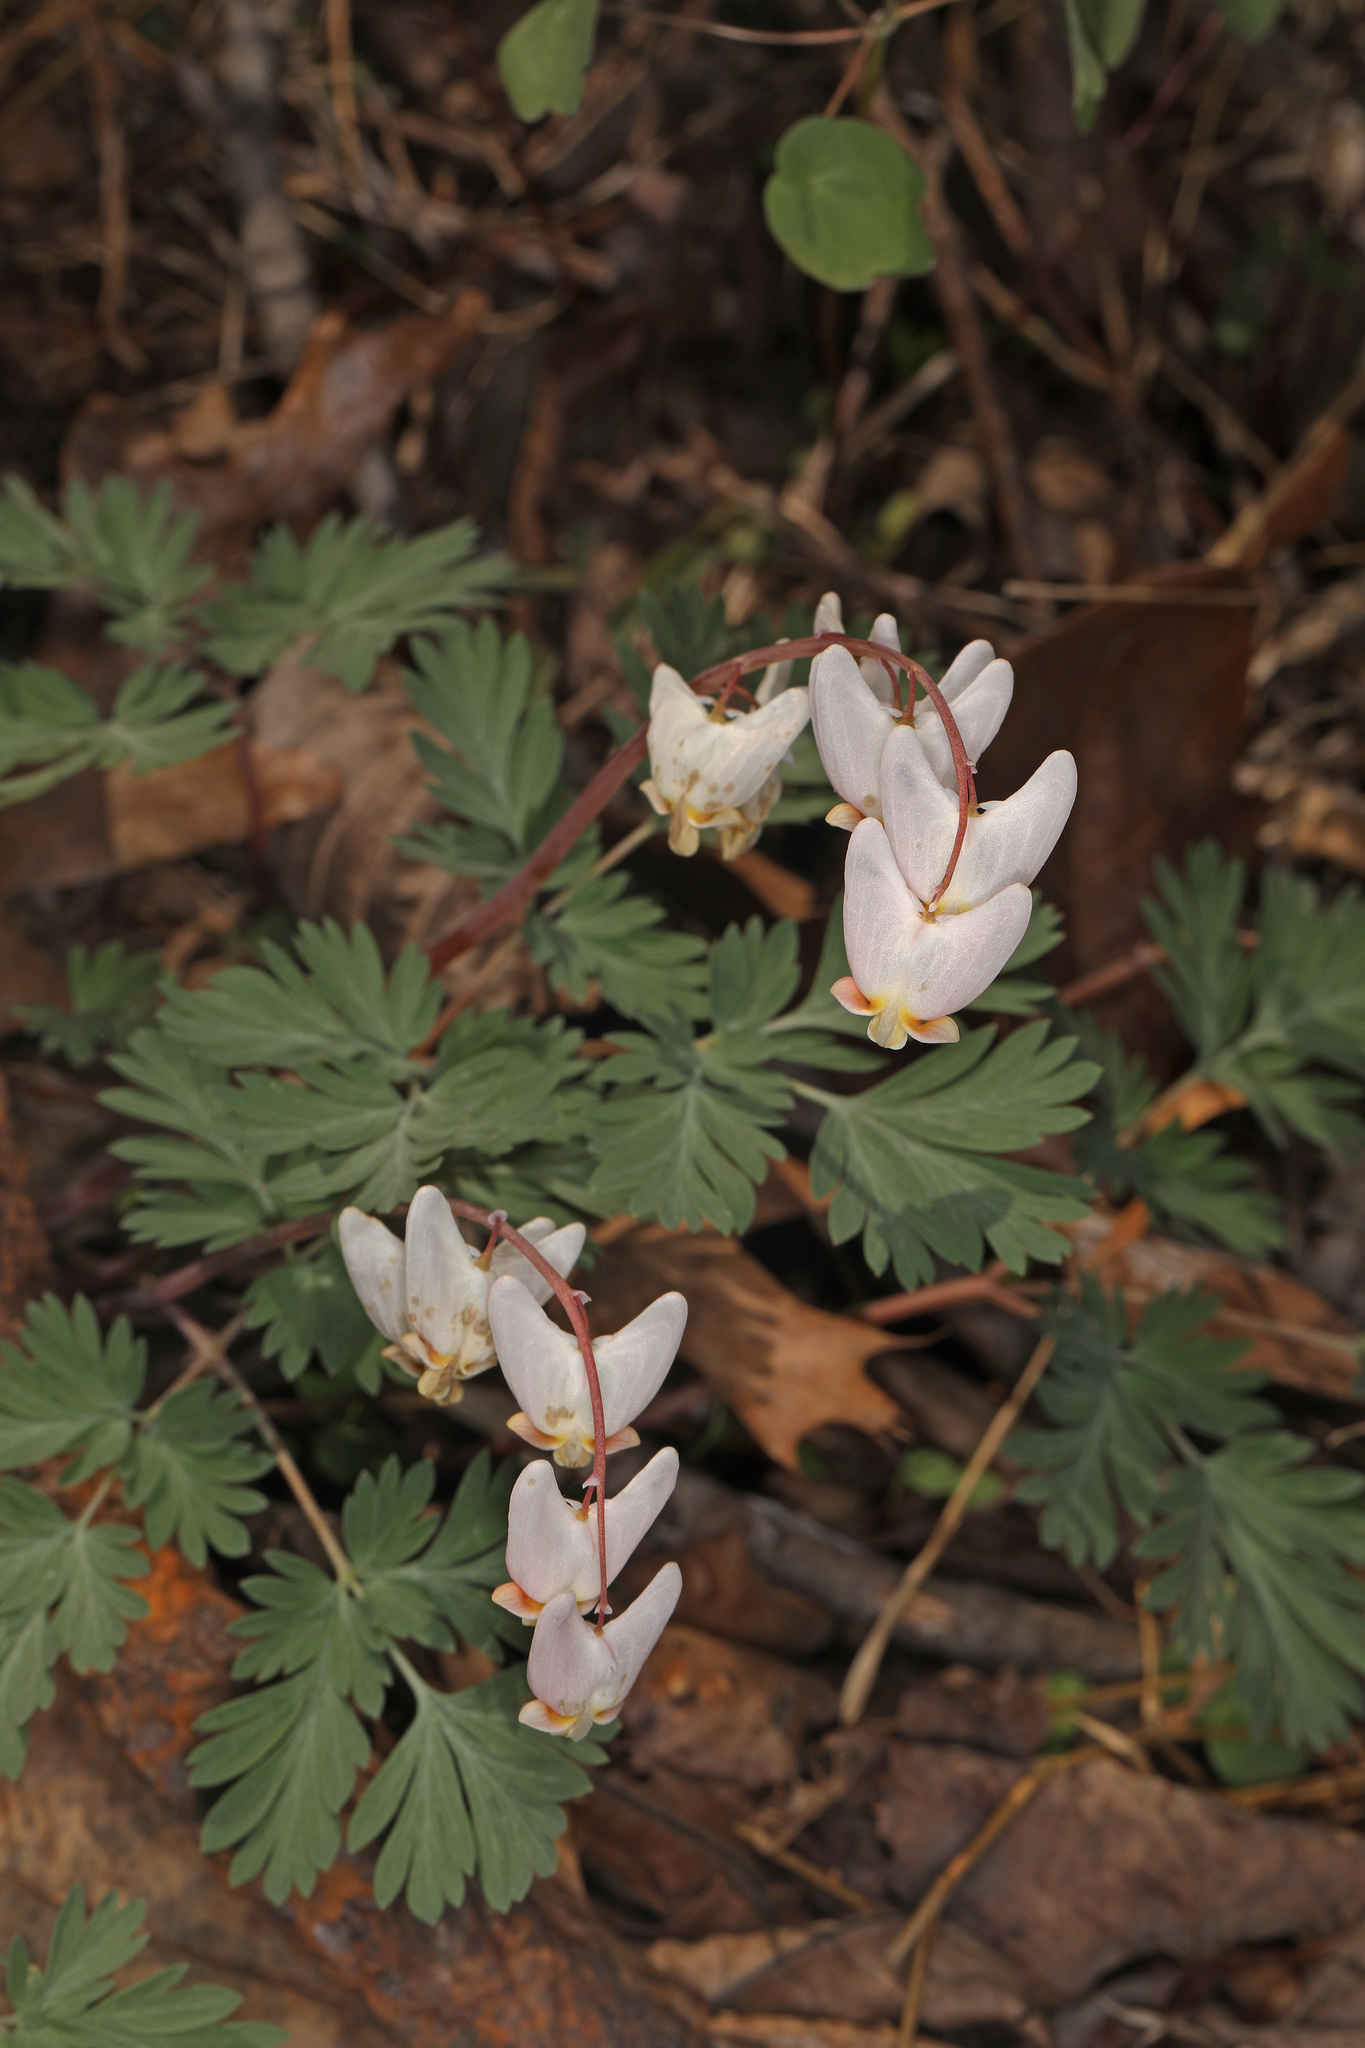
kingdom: Plantae
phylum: Tracheophyta
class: Magnoliopsida
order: Ranunculales
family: Papaveraceae
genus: Dicentra
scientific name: Dicentra cucullaria
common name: Dutchman's breeches
